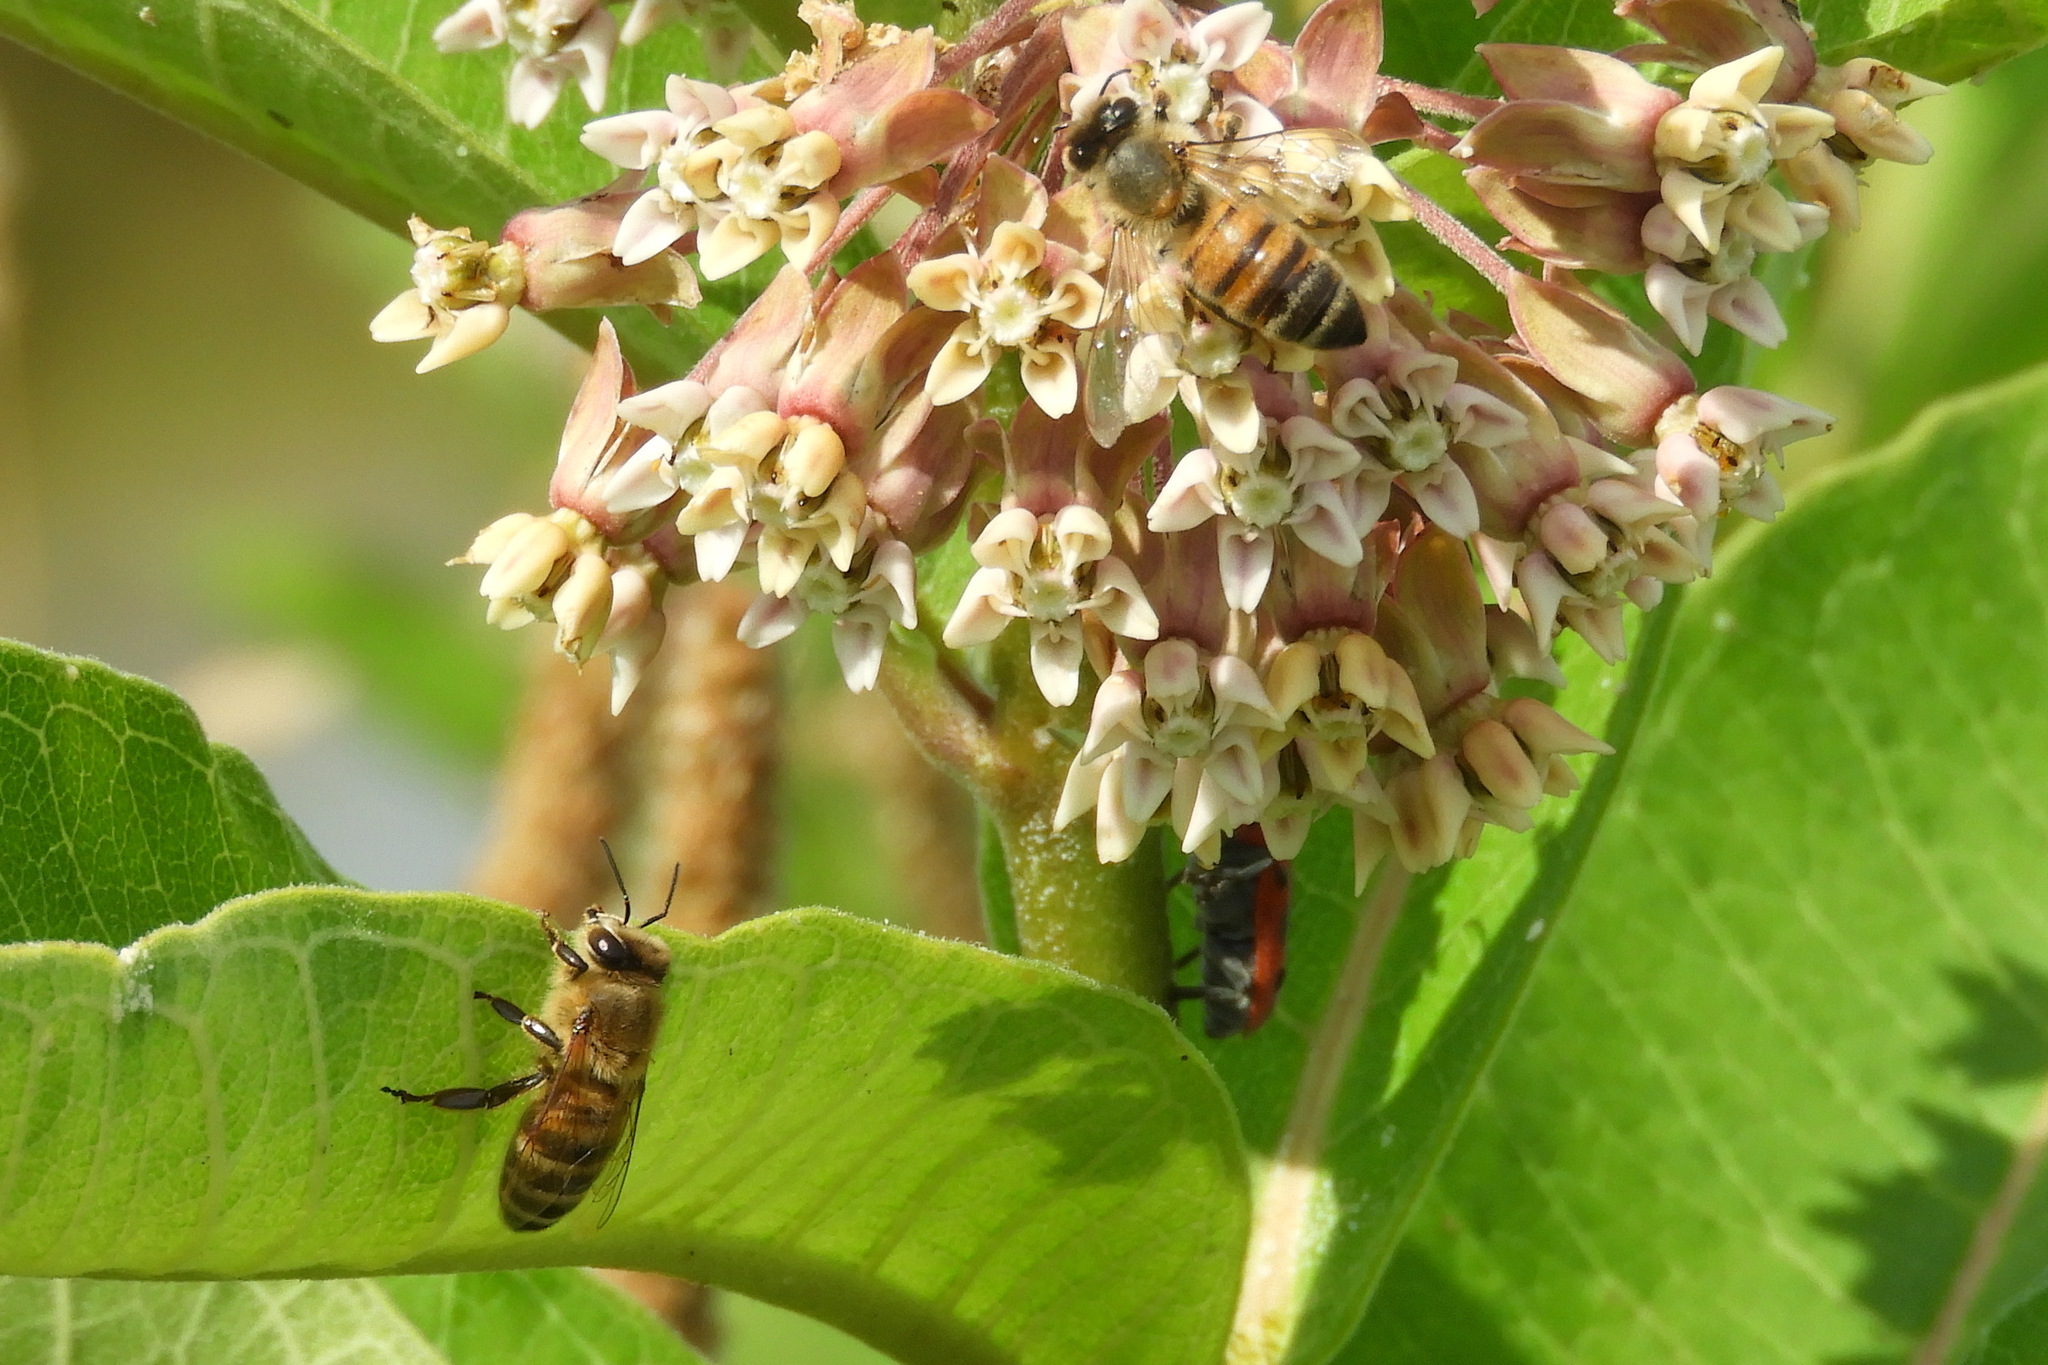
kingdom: Animalia
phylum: Arthropoda
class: Insecta
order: Hymenoptera
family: Apidae
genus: Apis
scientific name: Apis mellifera
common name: Honey bee
